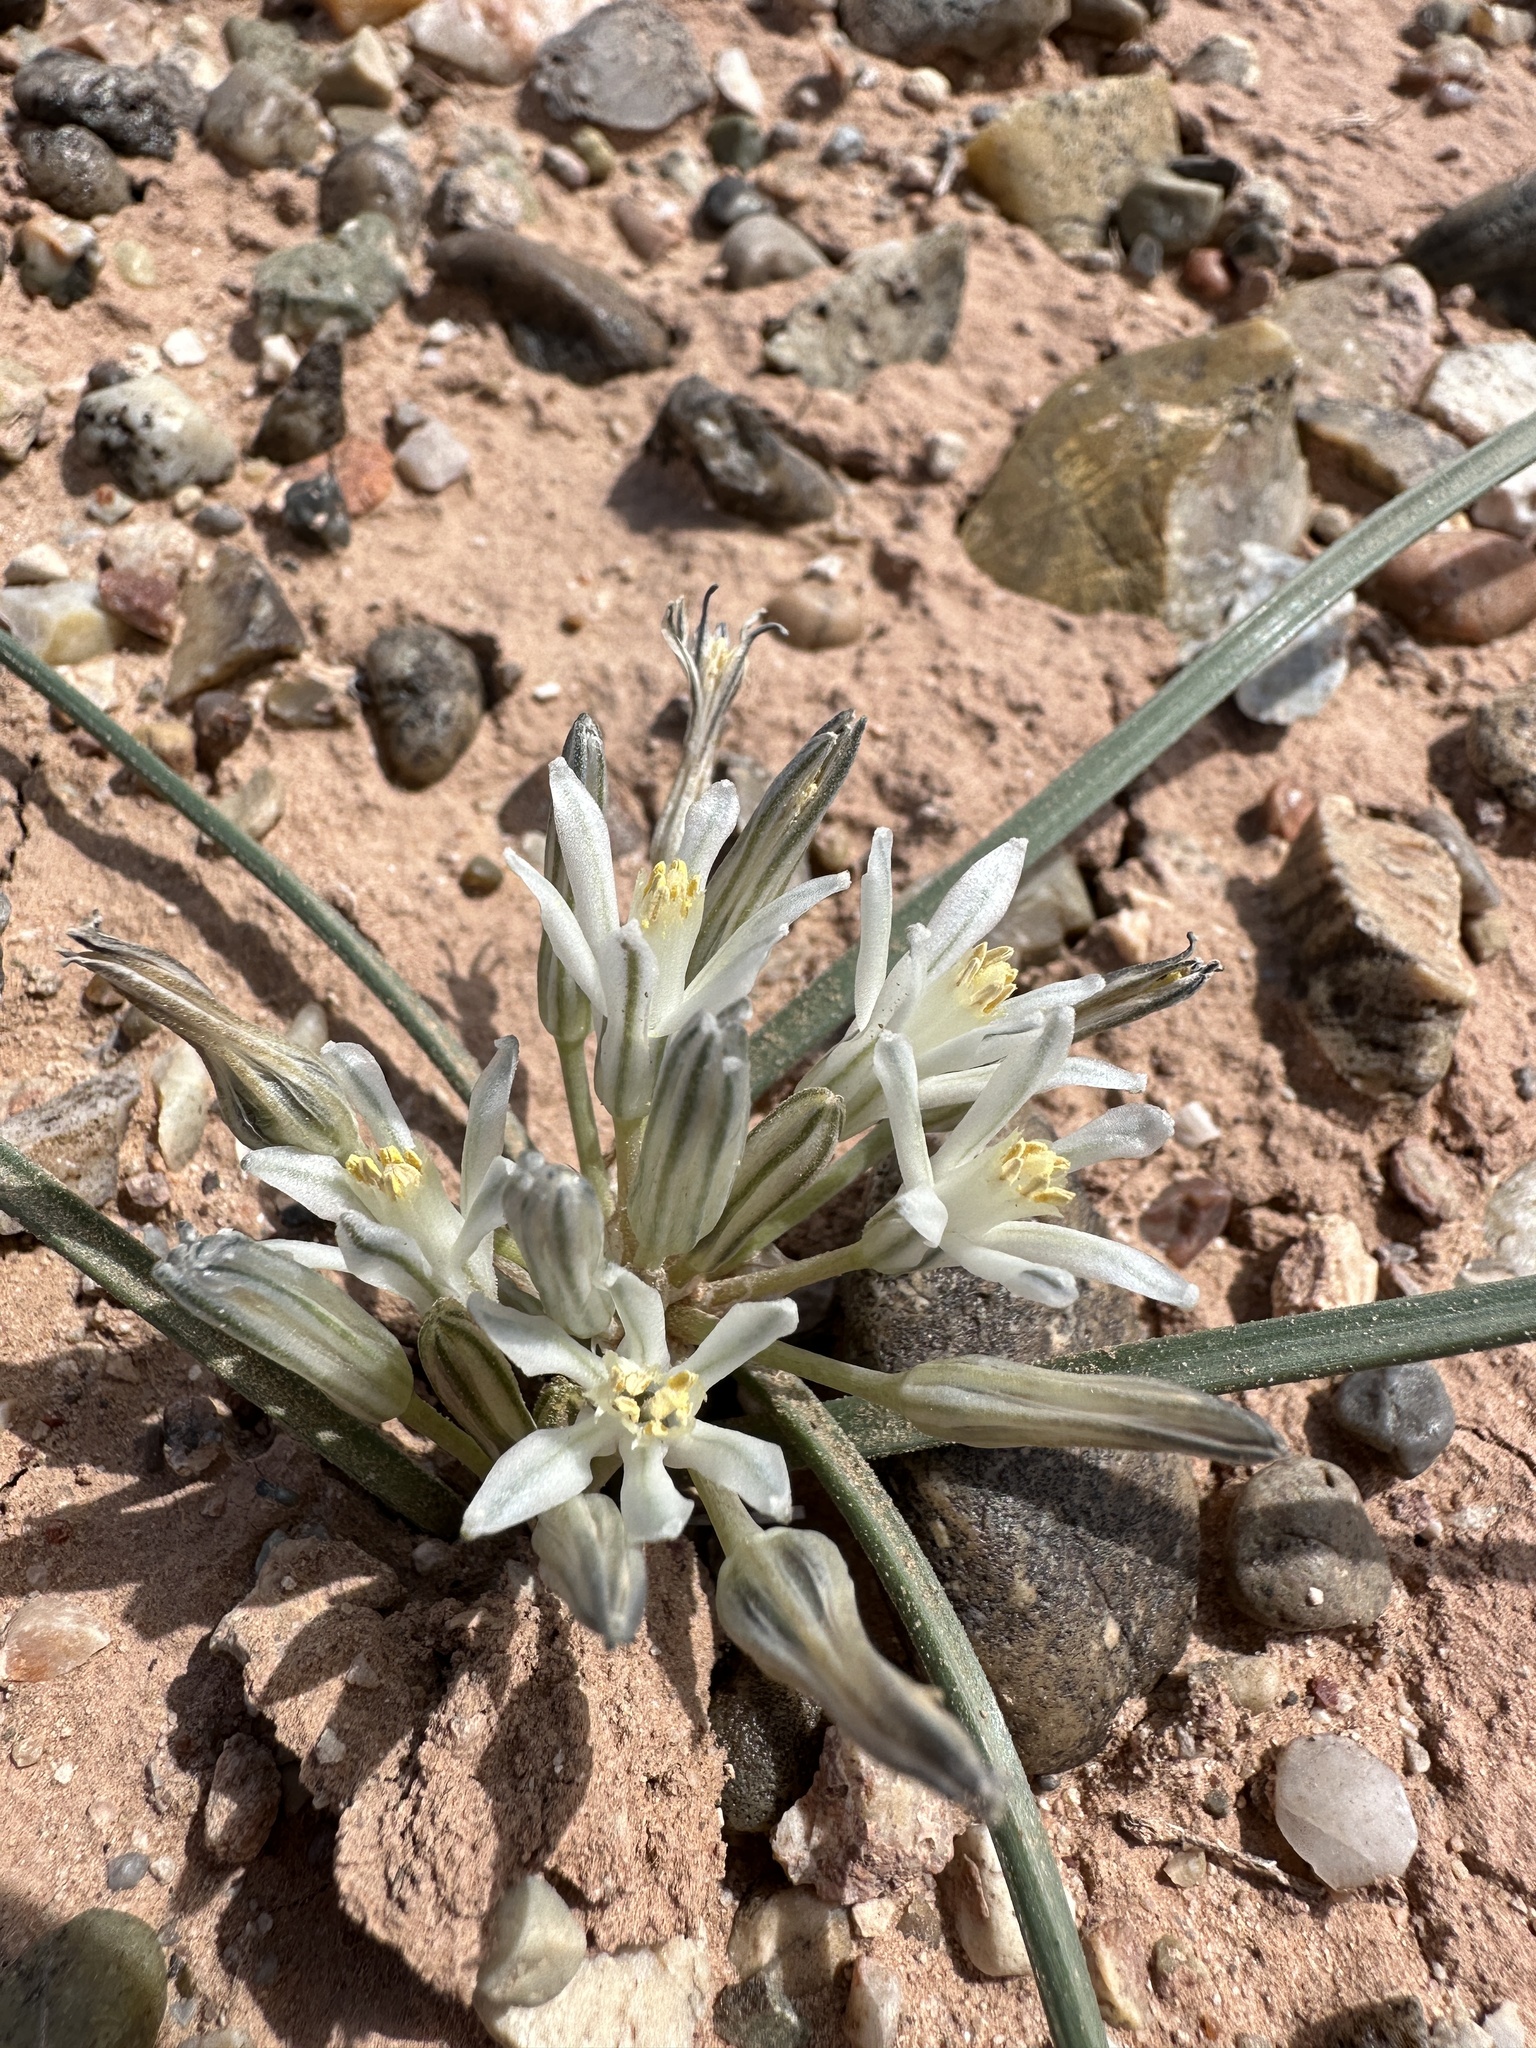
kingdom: Plantae
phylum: Tracheophyta
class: Liliopsida
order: Asparagales
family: Asparagaceae
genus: Androstephium
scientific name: Androstephium breviflorum
